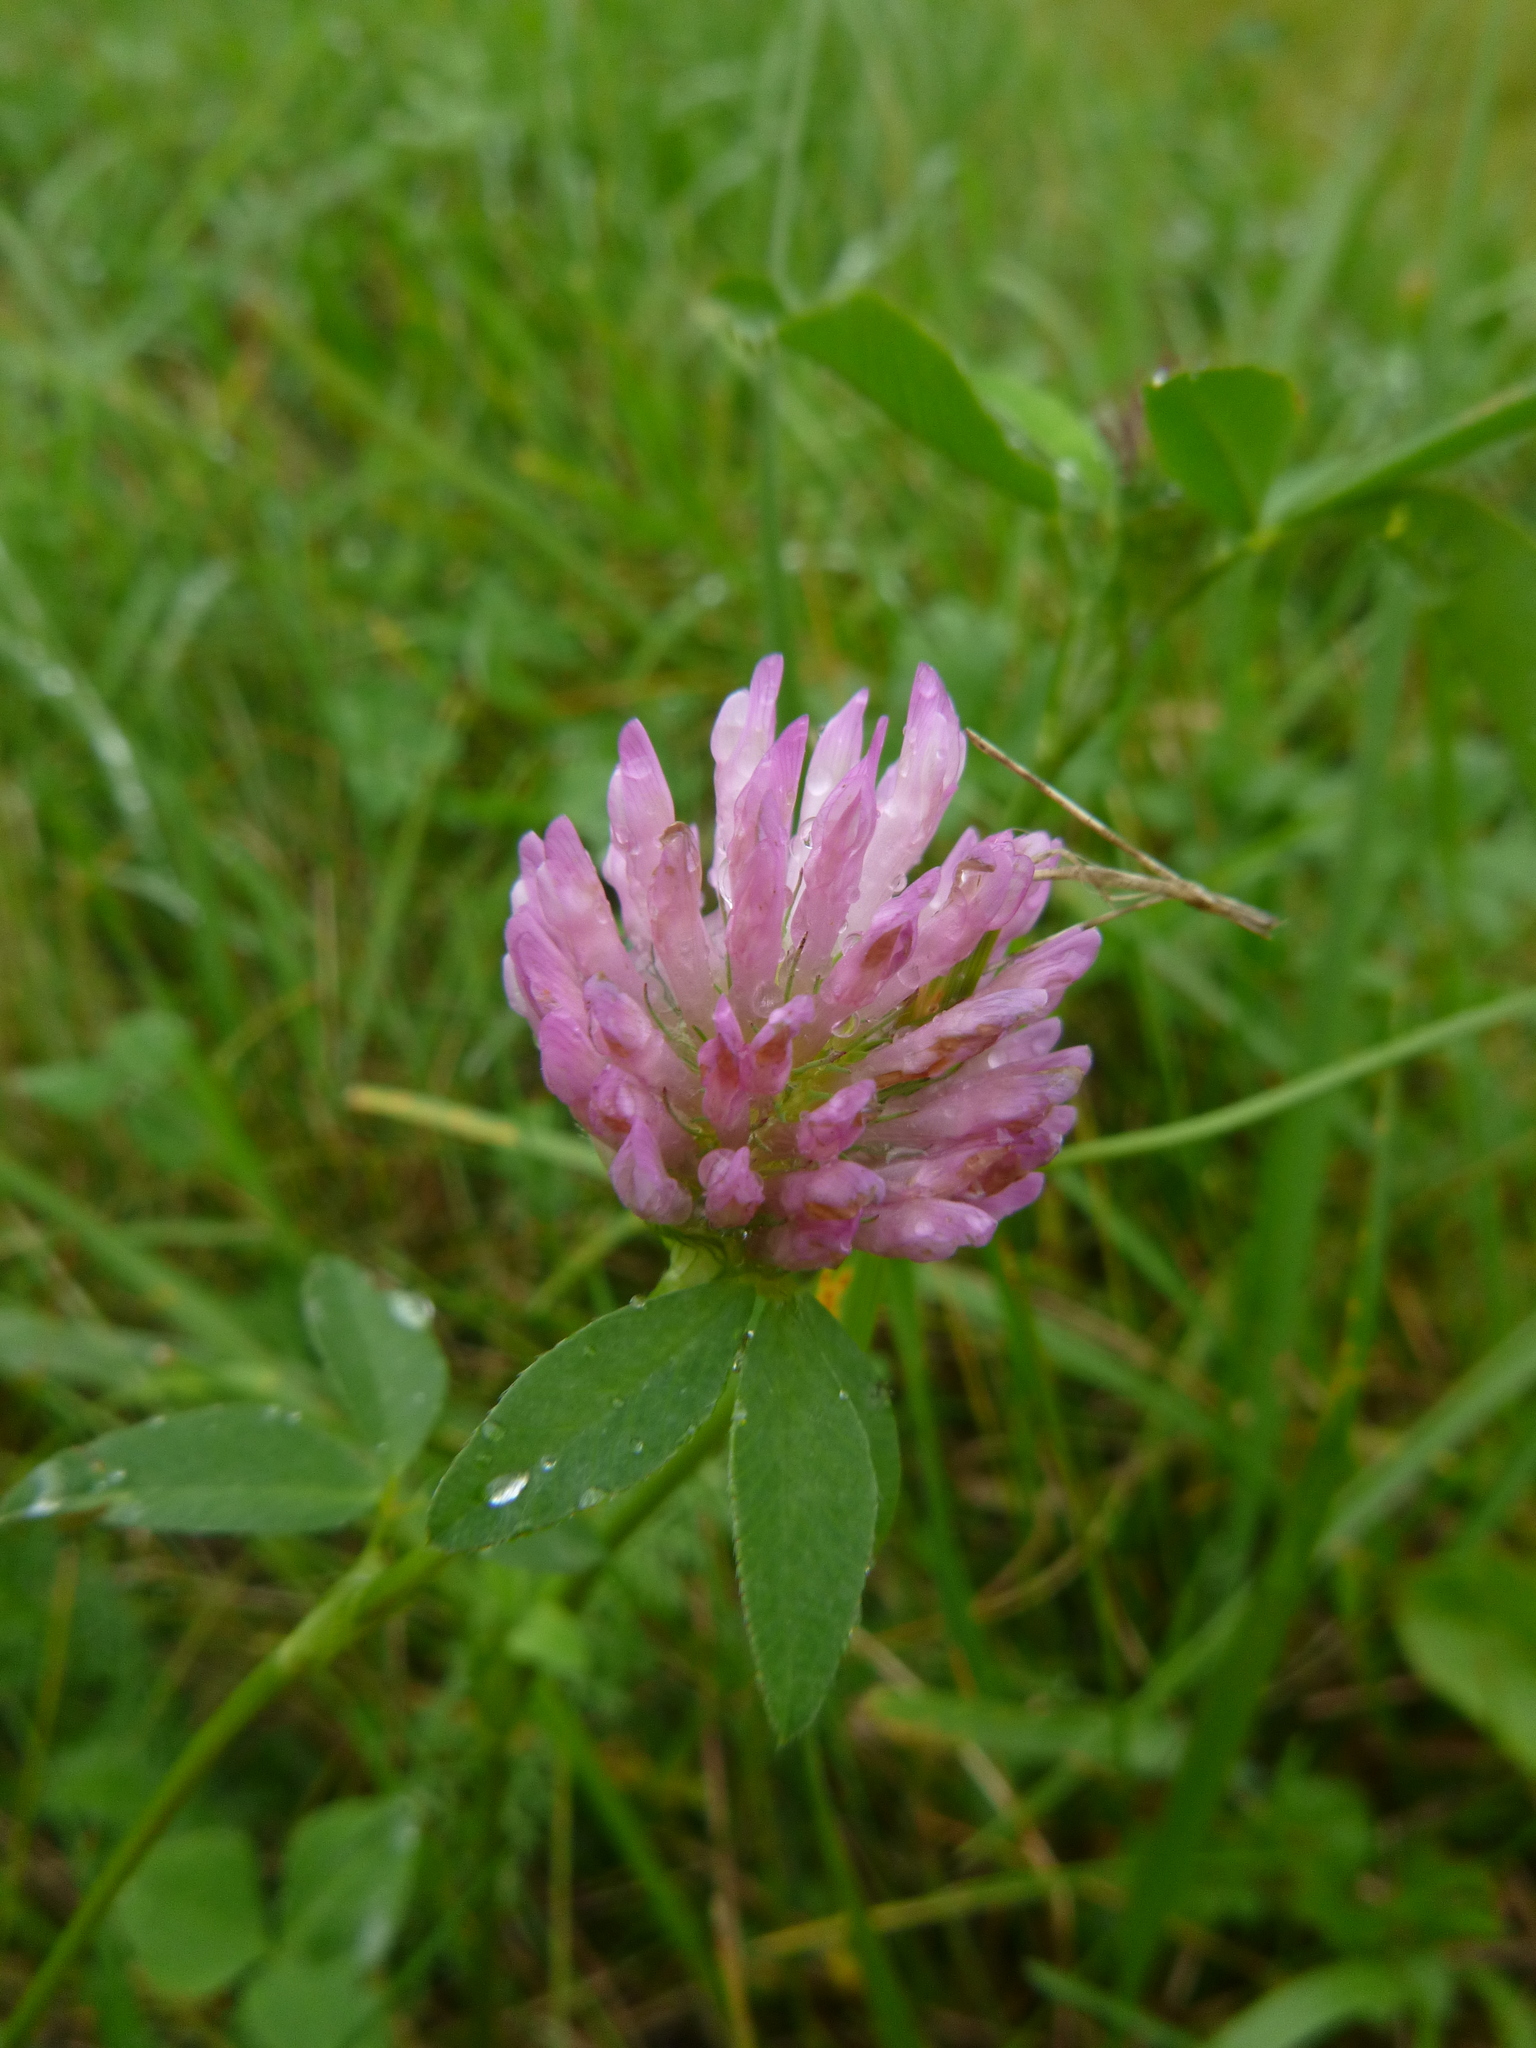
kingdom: Plantae
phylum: Tracheophyta
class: Magnoliopsida
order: Fabales
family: Fabaceae
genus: Trifolium
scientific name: Trifolium pratense
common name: Red clover
